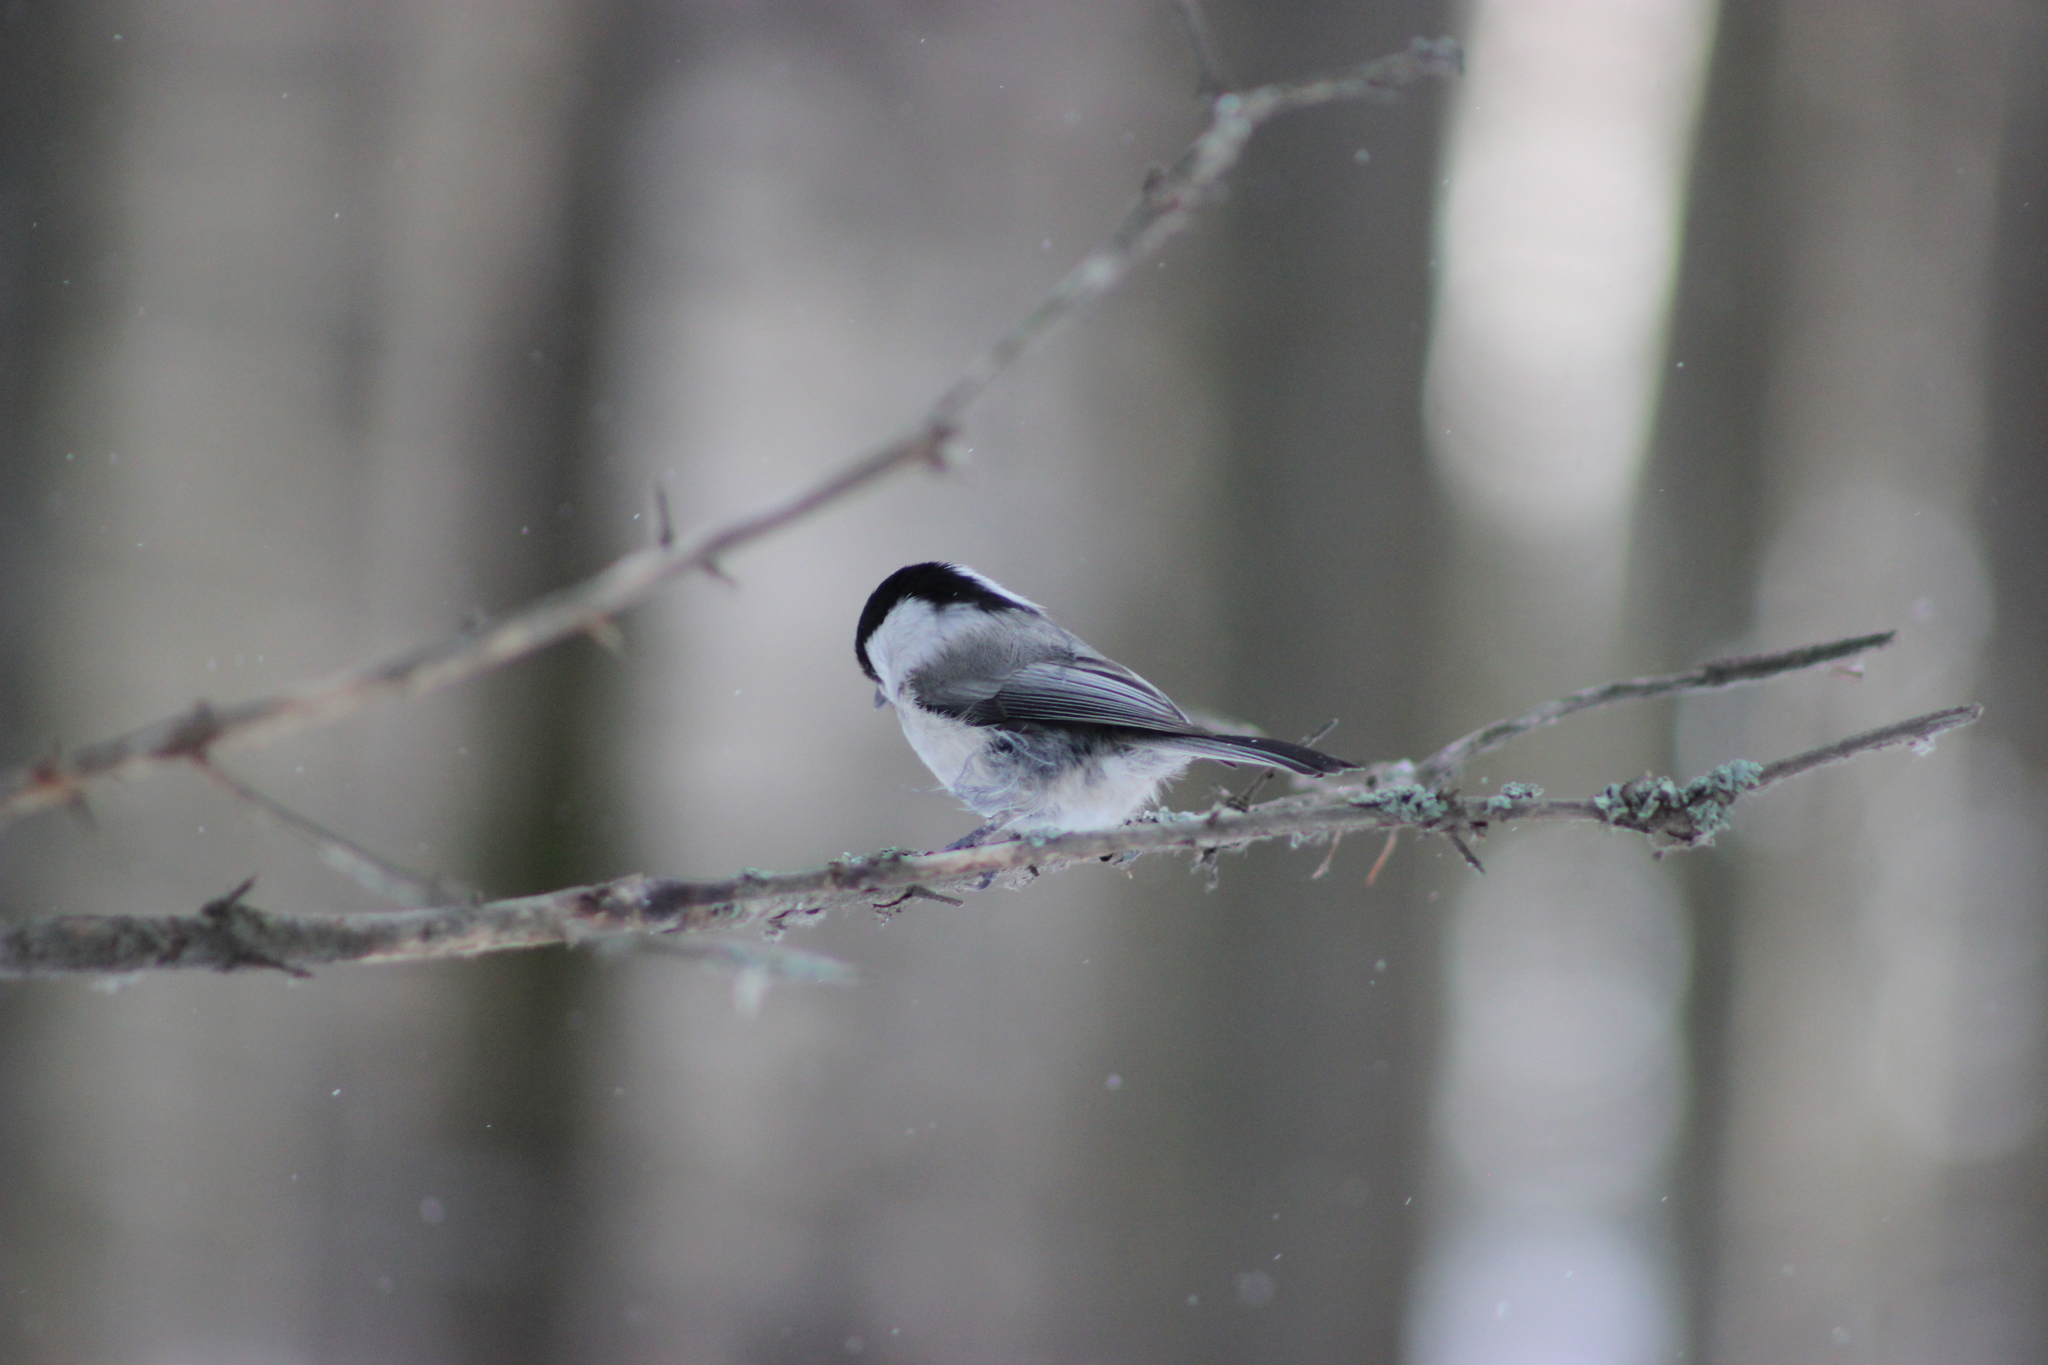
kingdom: Animalia
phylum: Chordata
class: Aves
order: Passeriformes
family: Paridae
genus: Poecile
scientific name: Poecile montanus
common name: Willow tit
